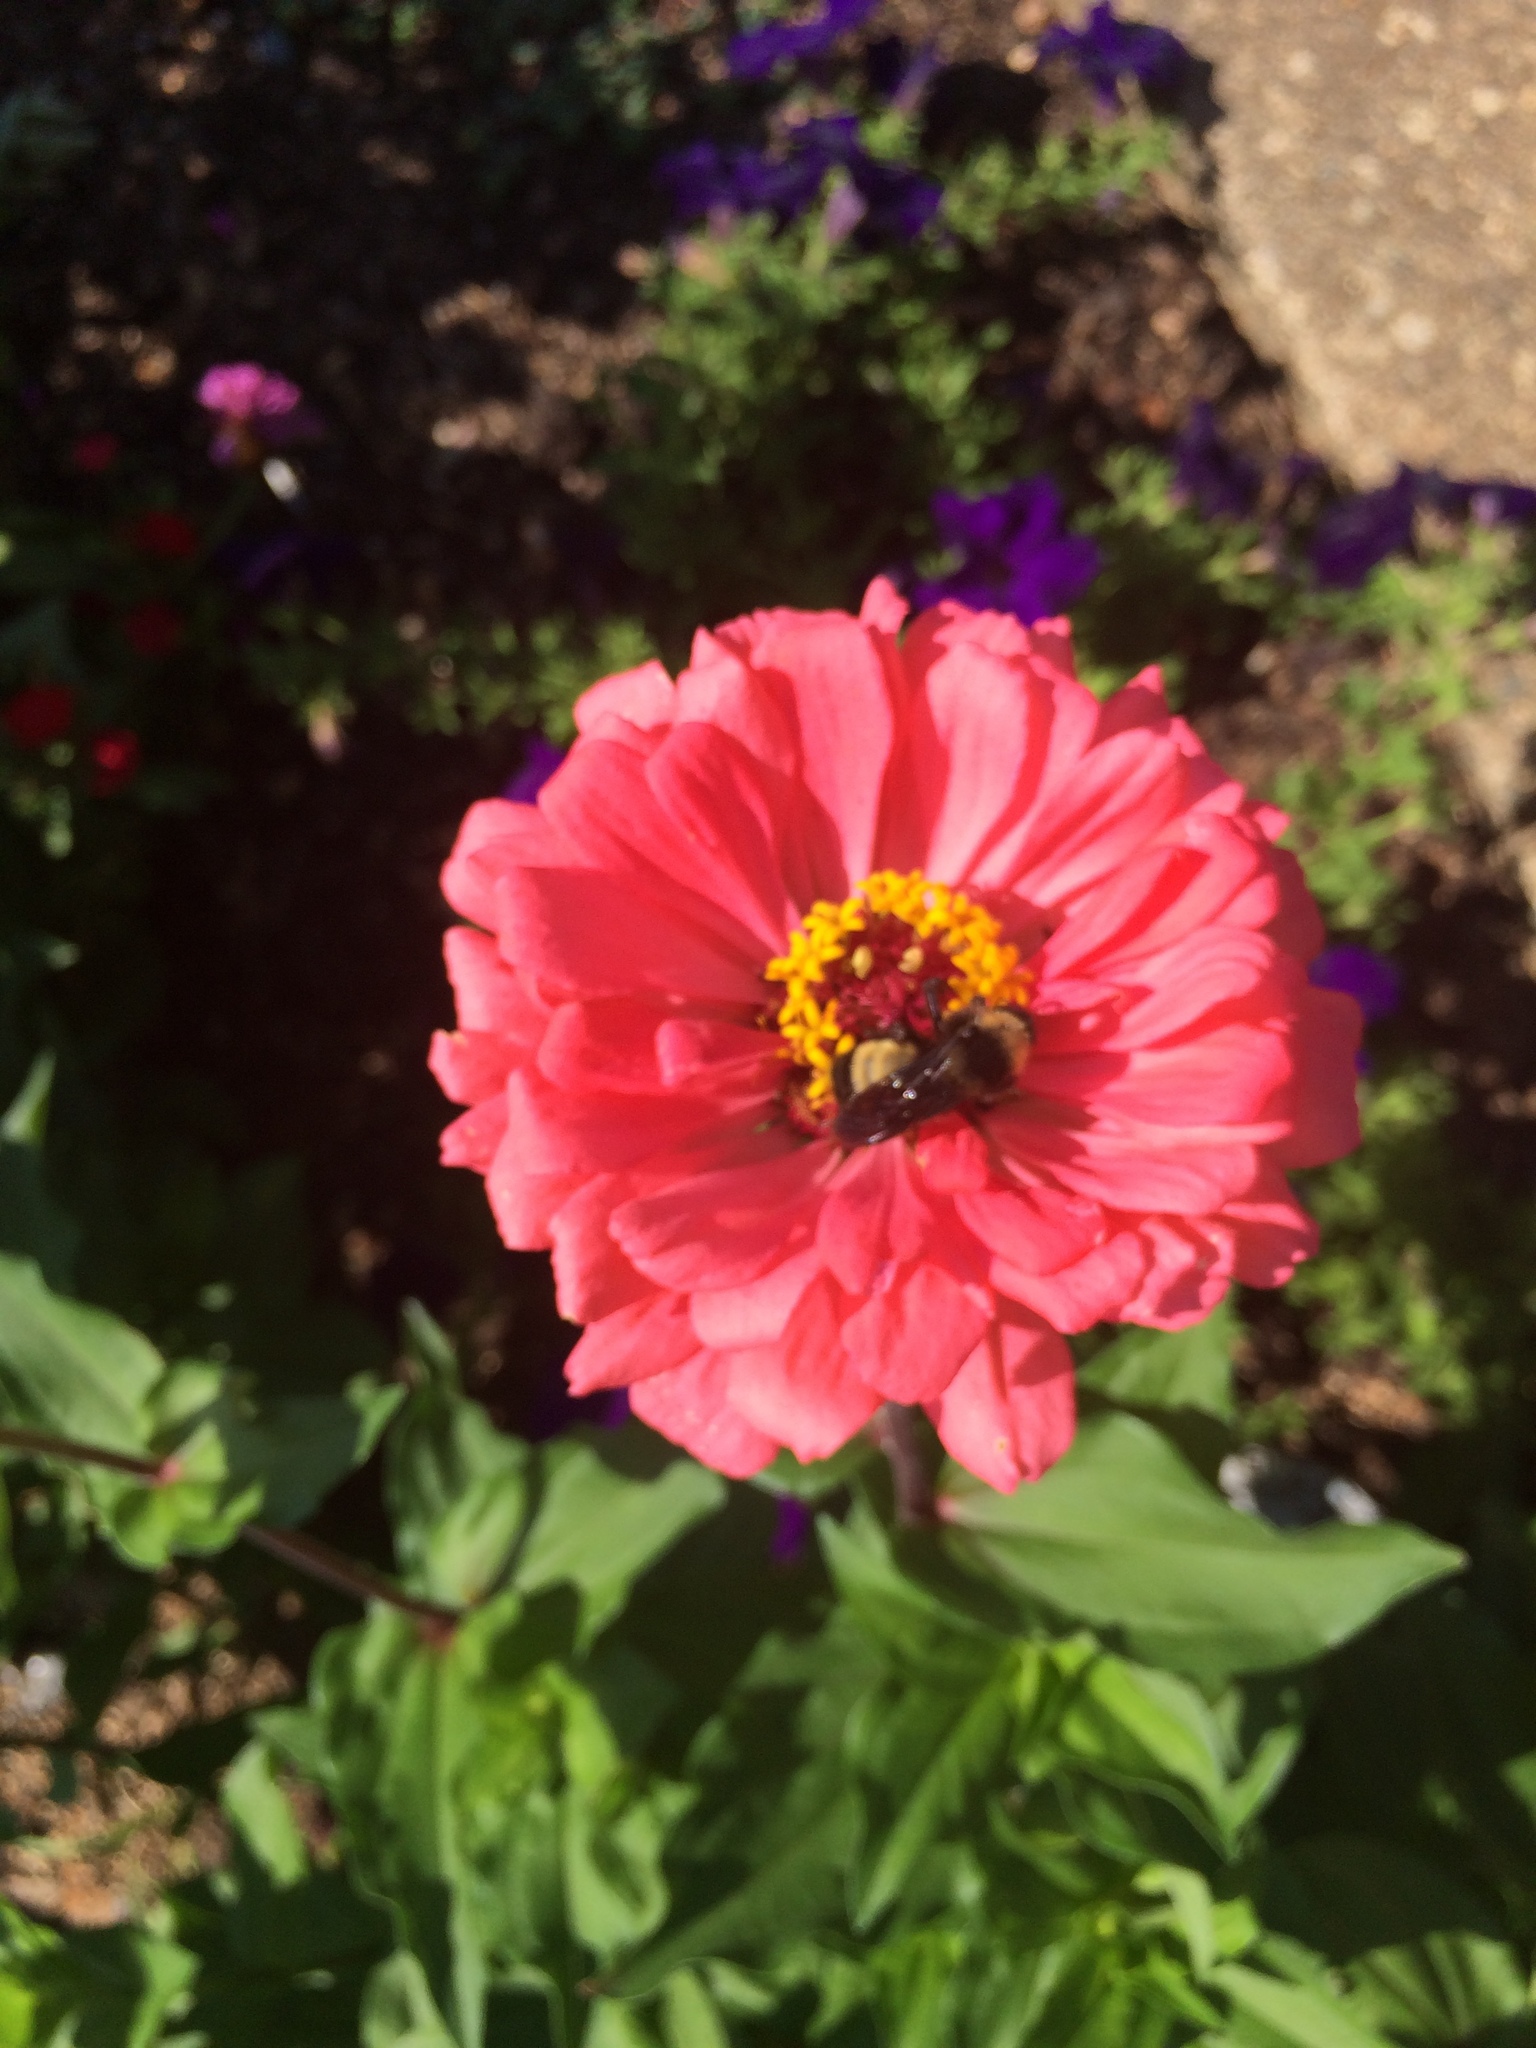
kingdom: Animalia
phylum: Arthropoda
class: Insecta
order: Hymenoptera
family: Apidae
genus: Bombus
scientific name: Bombus pensylvanicus
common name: Bumble bee
